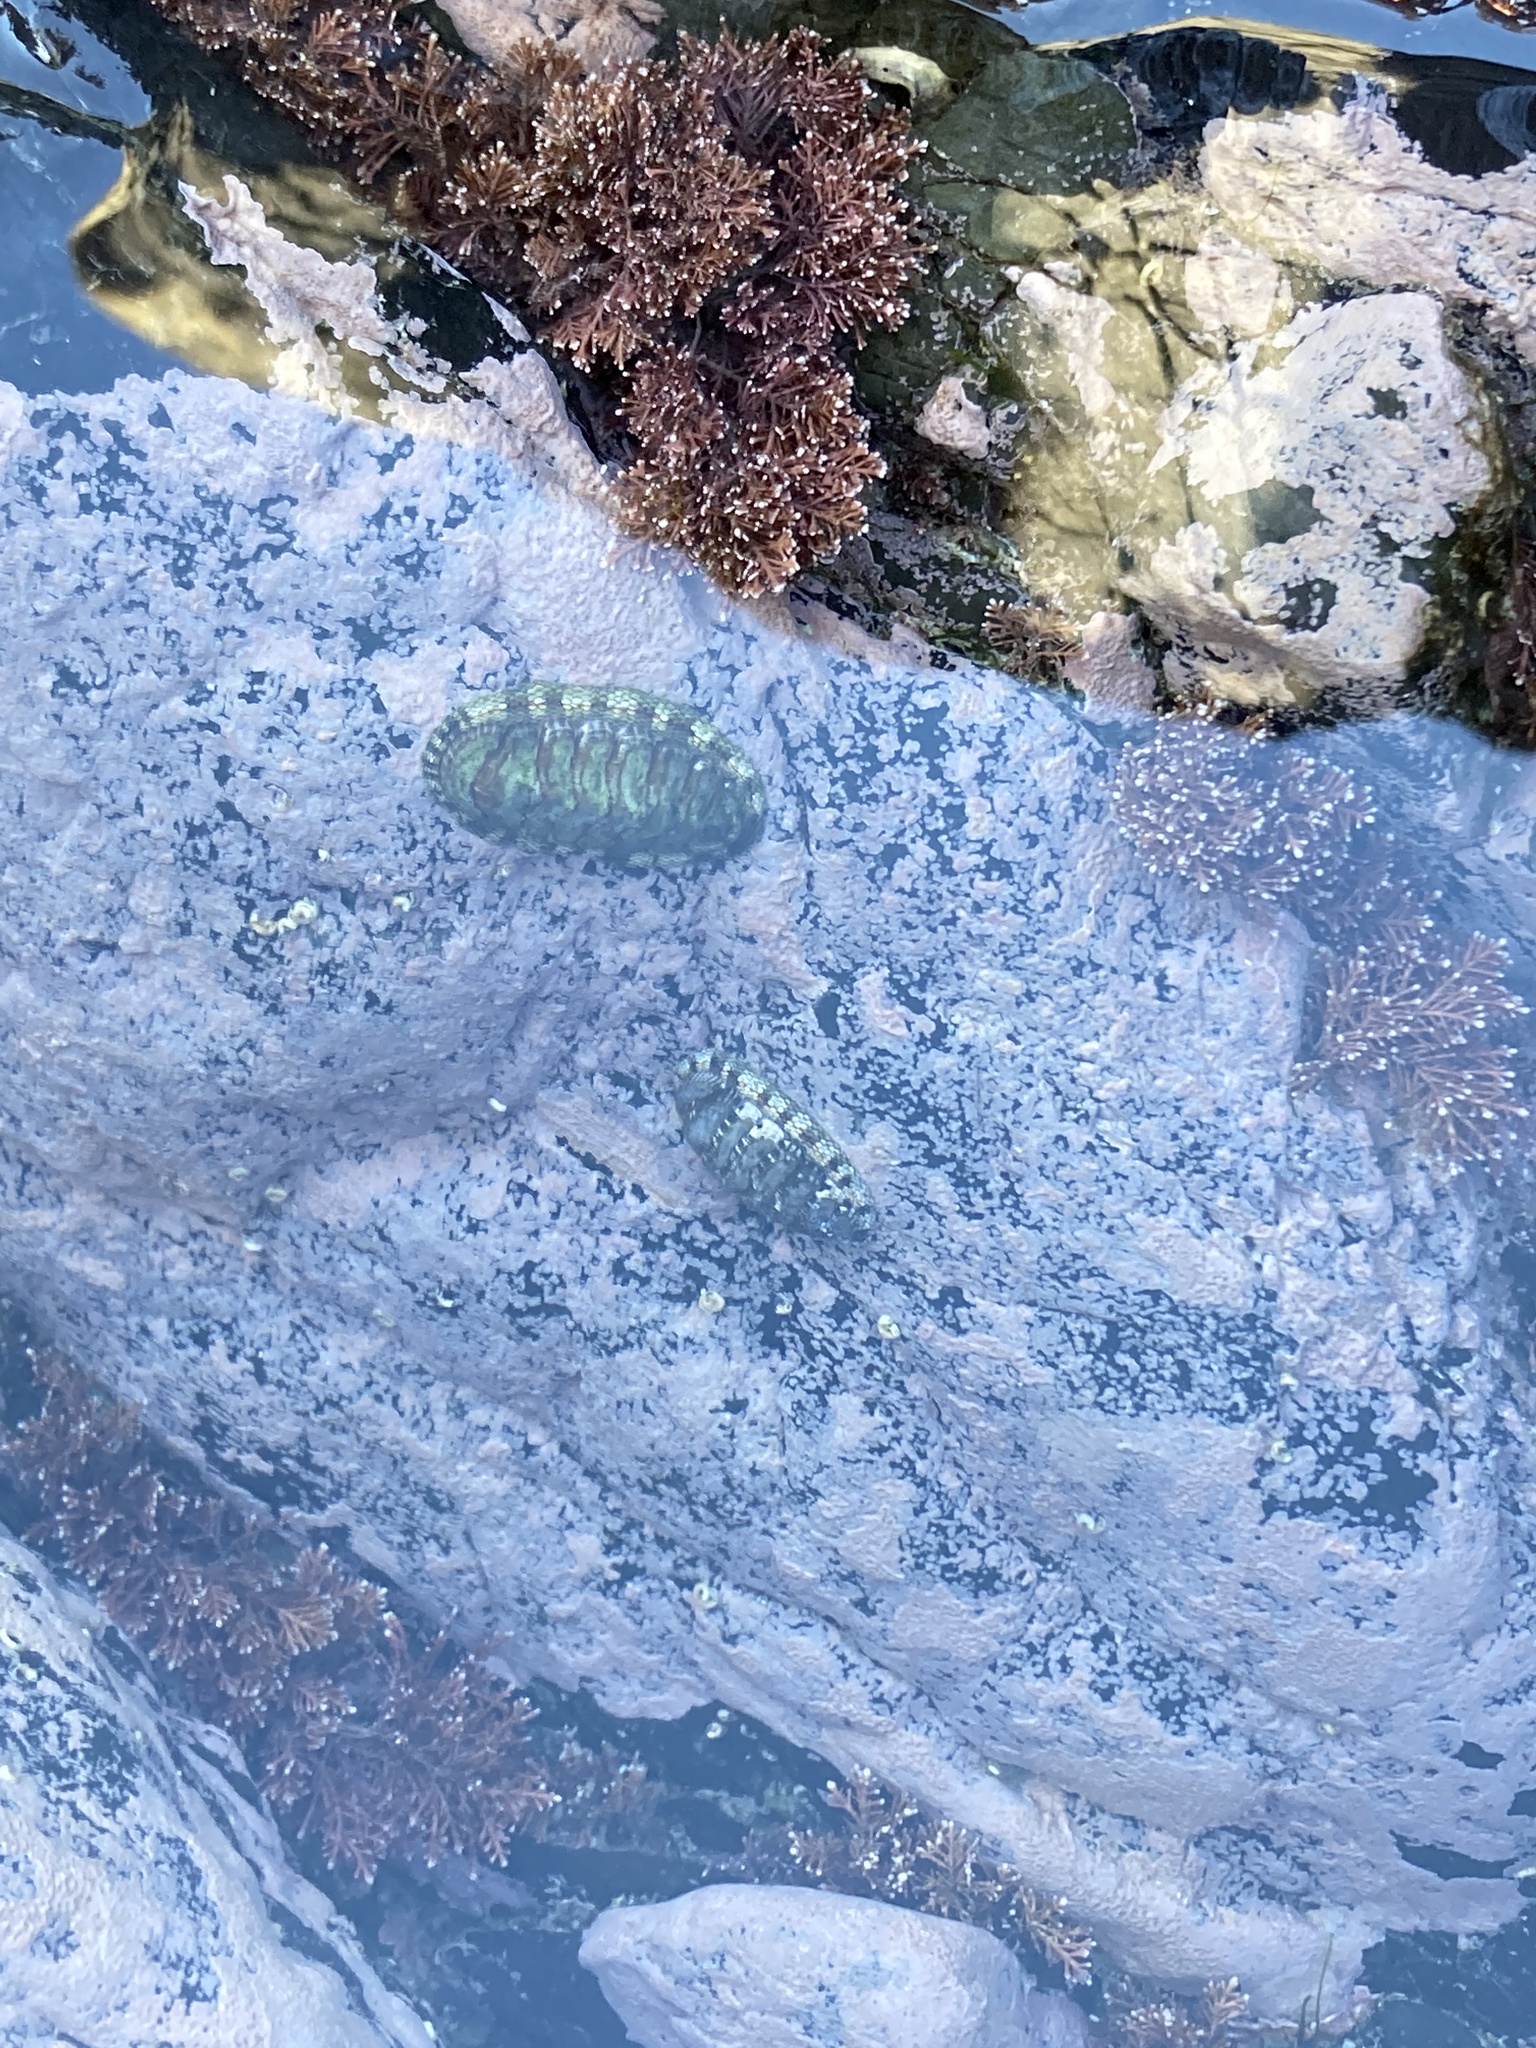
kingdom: Animalia
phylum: Mollusca
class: Polyplacophora
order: Chitonida
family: Chitonidae
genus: Sypharochiton
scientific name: Sypharochiton pelliserpentis
